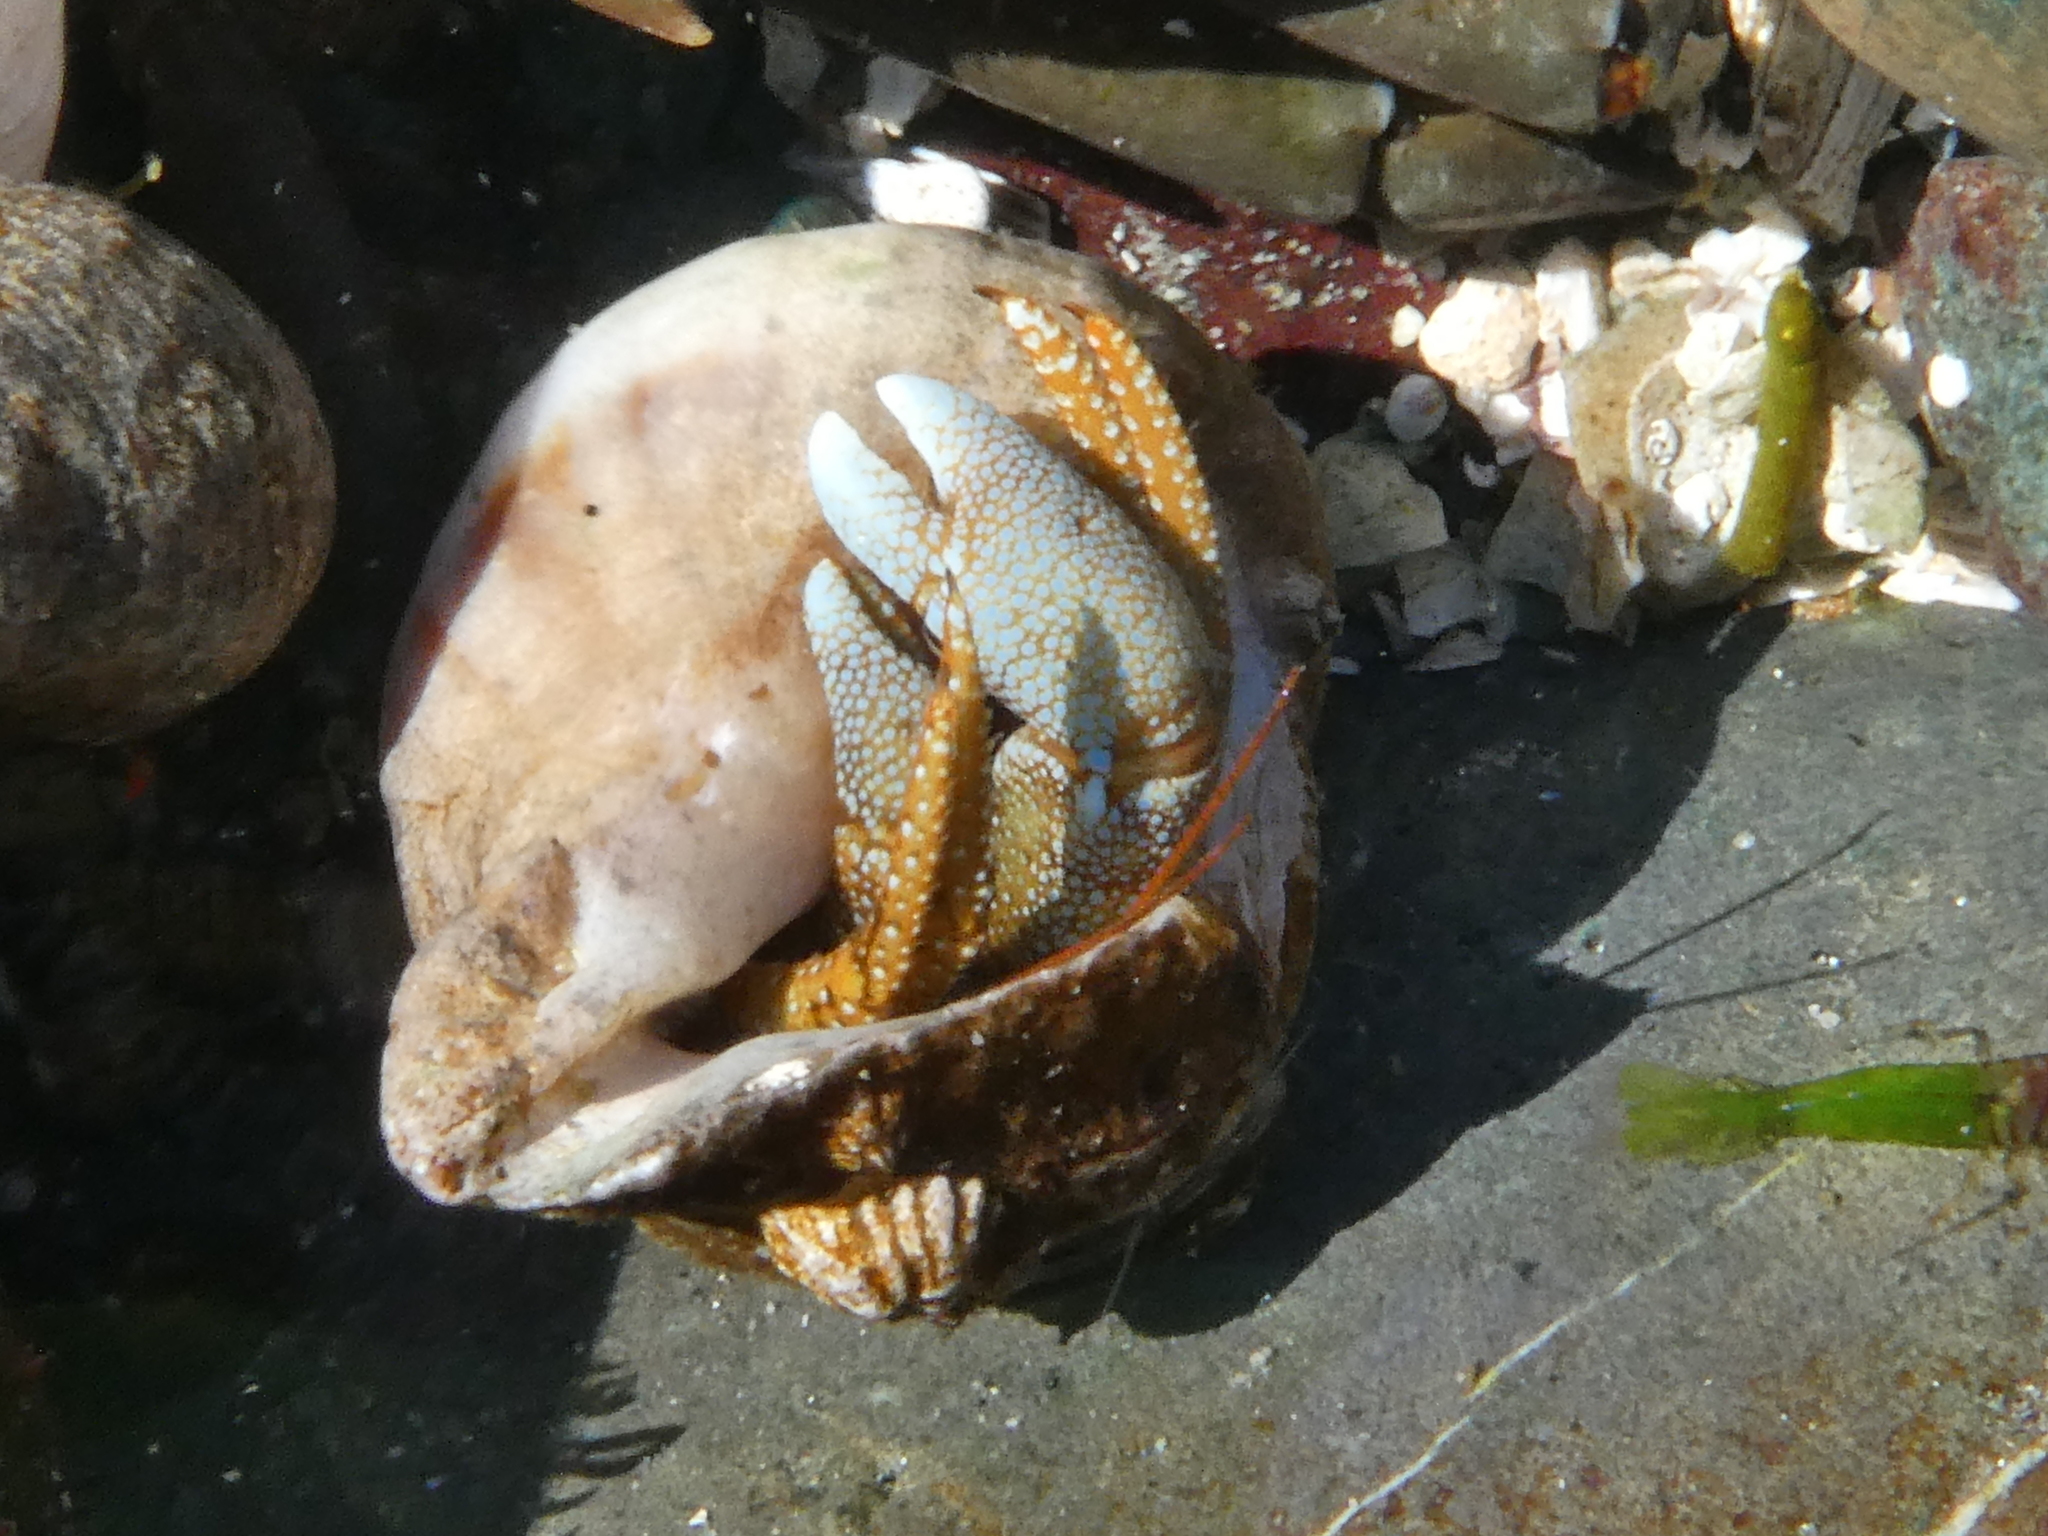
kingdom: Animalia
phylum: Arthropoda
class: Malacostraca
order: Decapoda
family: Paguridae
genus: Pagurus
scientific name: Pagurus granosimanus
